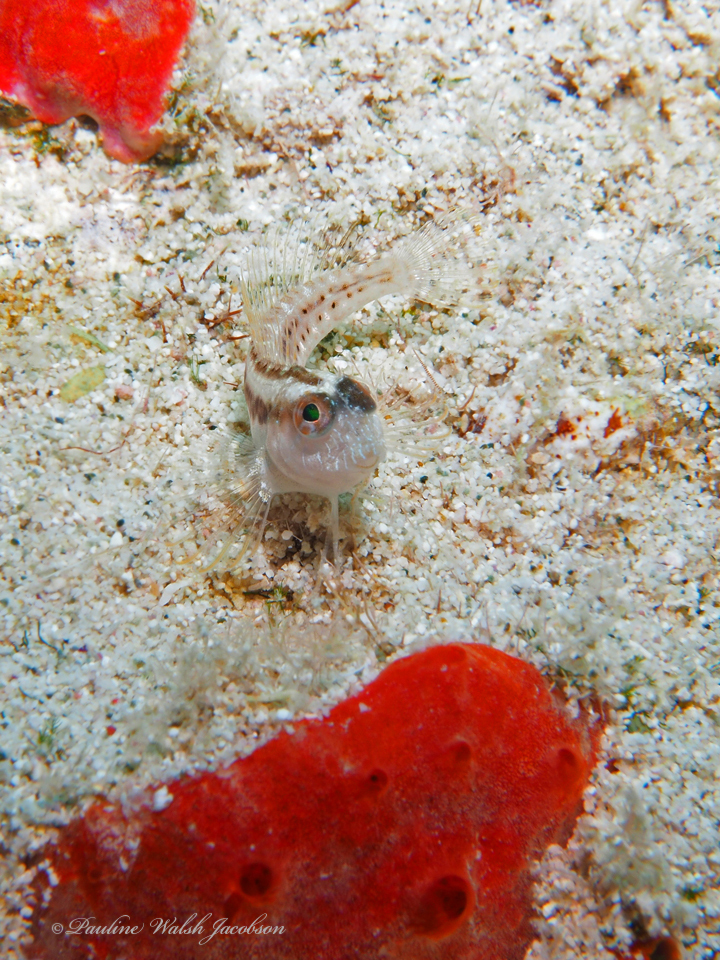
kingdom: Animalia
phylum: Chordata
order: Perciformes
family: Blenniidae
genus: Parablennius
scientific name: Parablennius marmoreus
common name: Seaweed blenny
